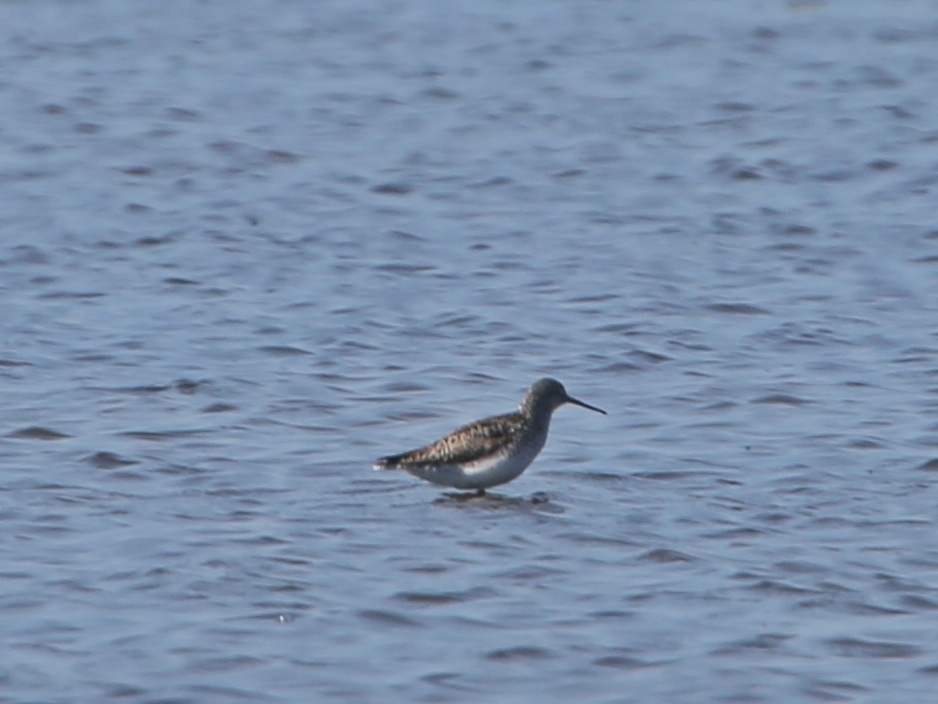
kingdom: Animalia
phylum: Chordata
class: Aves
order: Charadriiformes
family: Scolopacidae
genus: Tringa
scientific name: Tringa stagnatilis
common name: Marsh sandpiper
